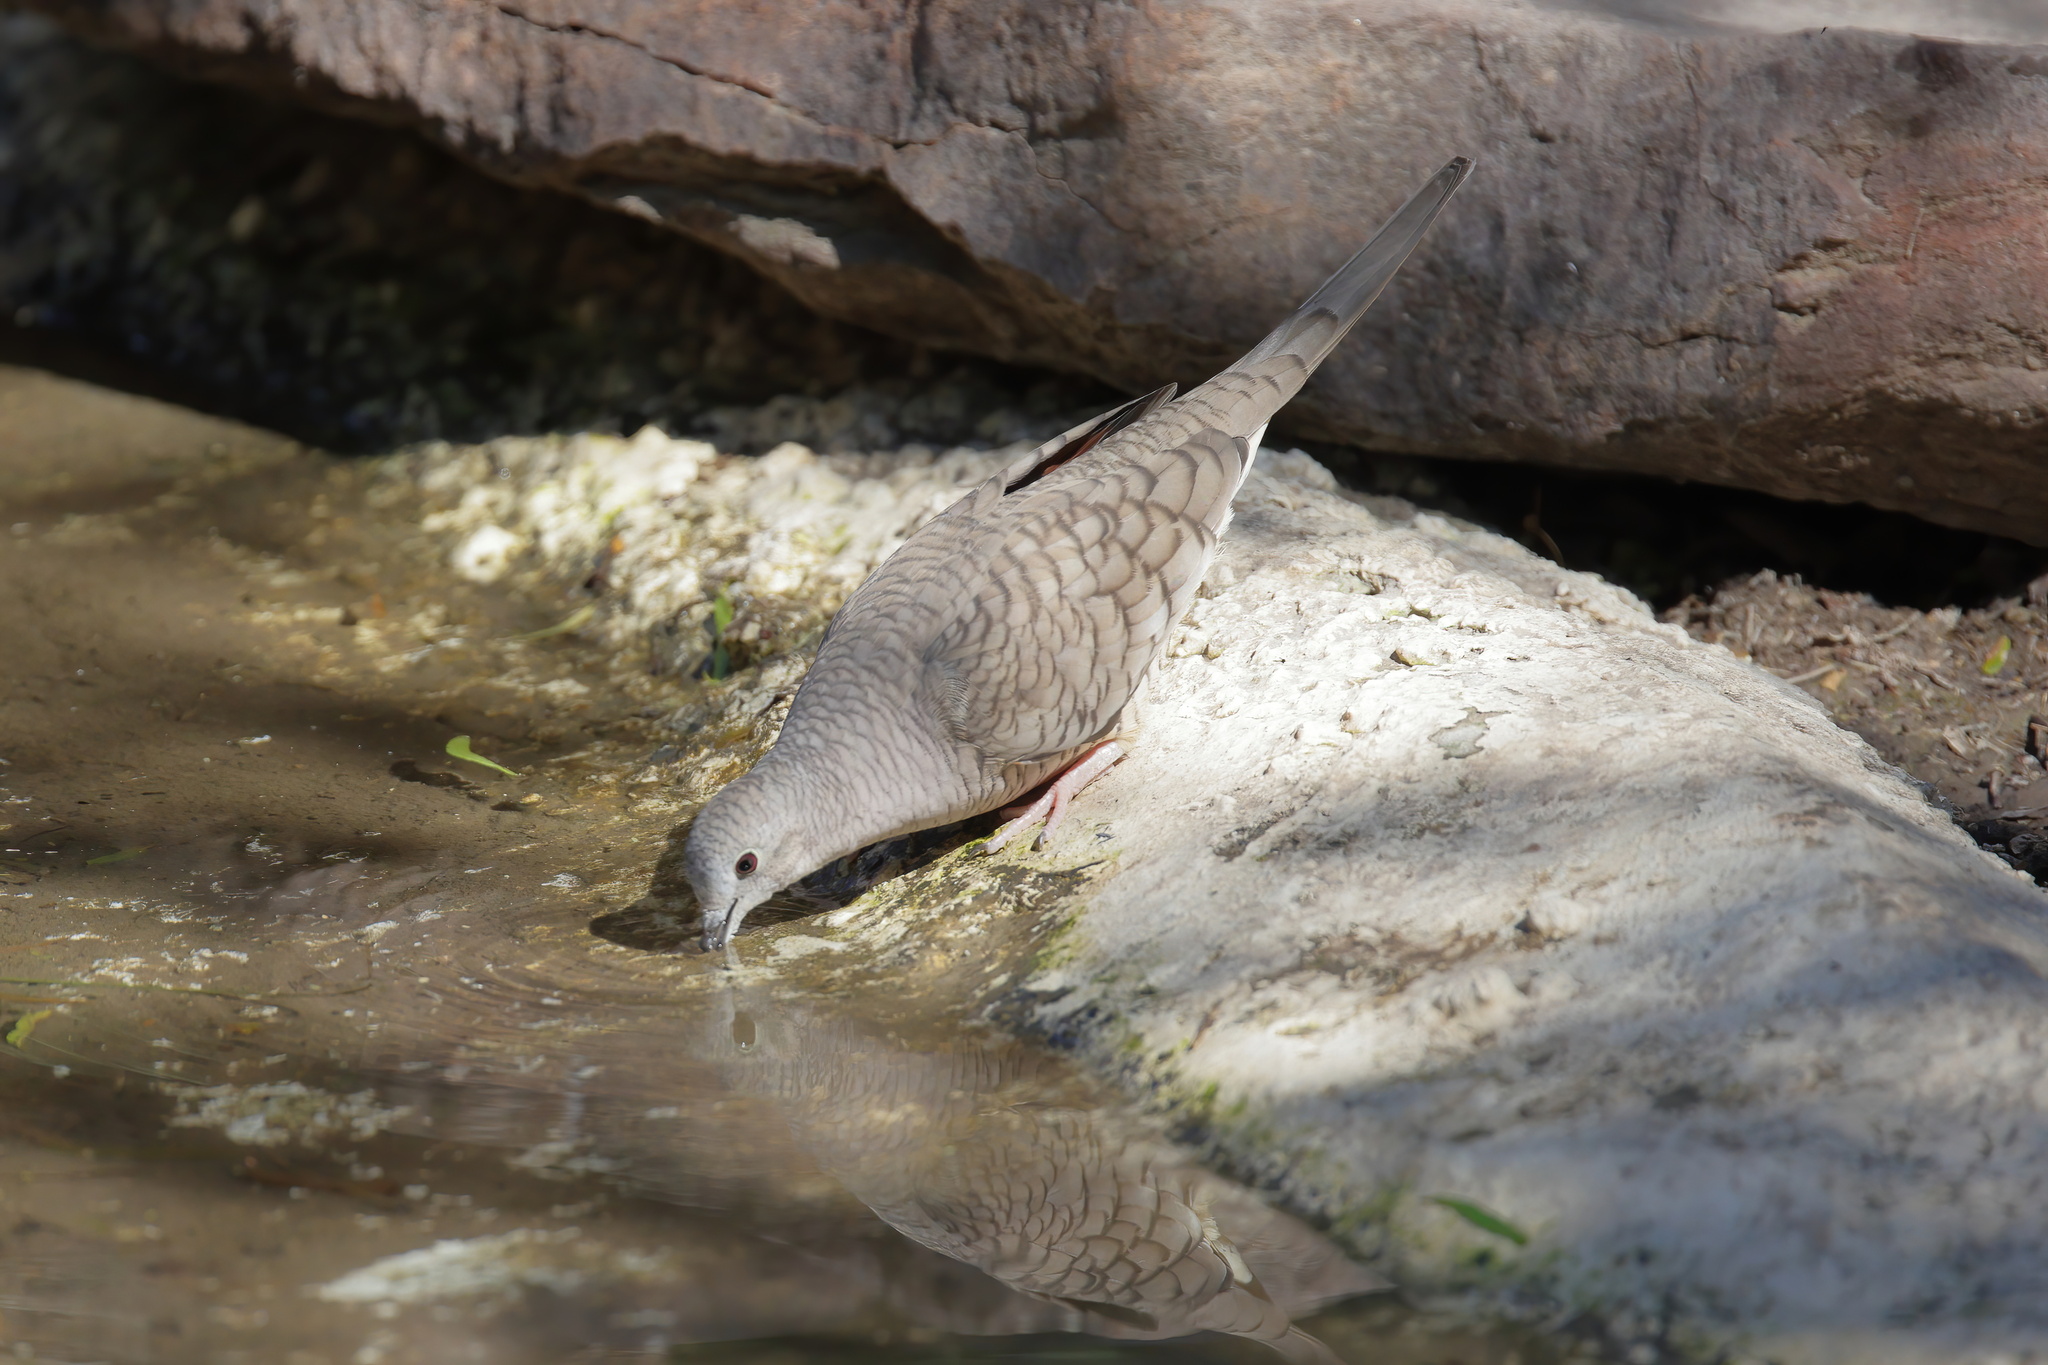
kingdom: Animalia
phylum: Chordata
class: Aves
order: Columbiformes
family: Columbidae
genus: Columbina
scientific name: Columbina inca
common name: Inca dove
